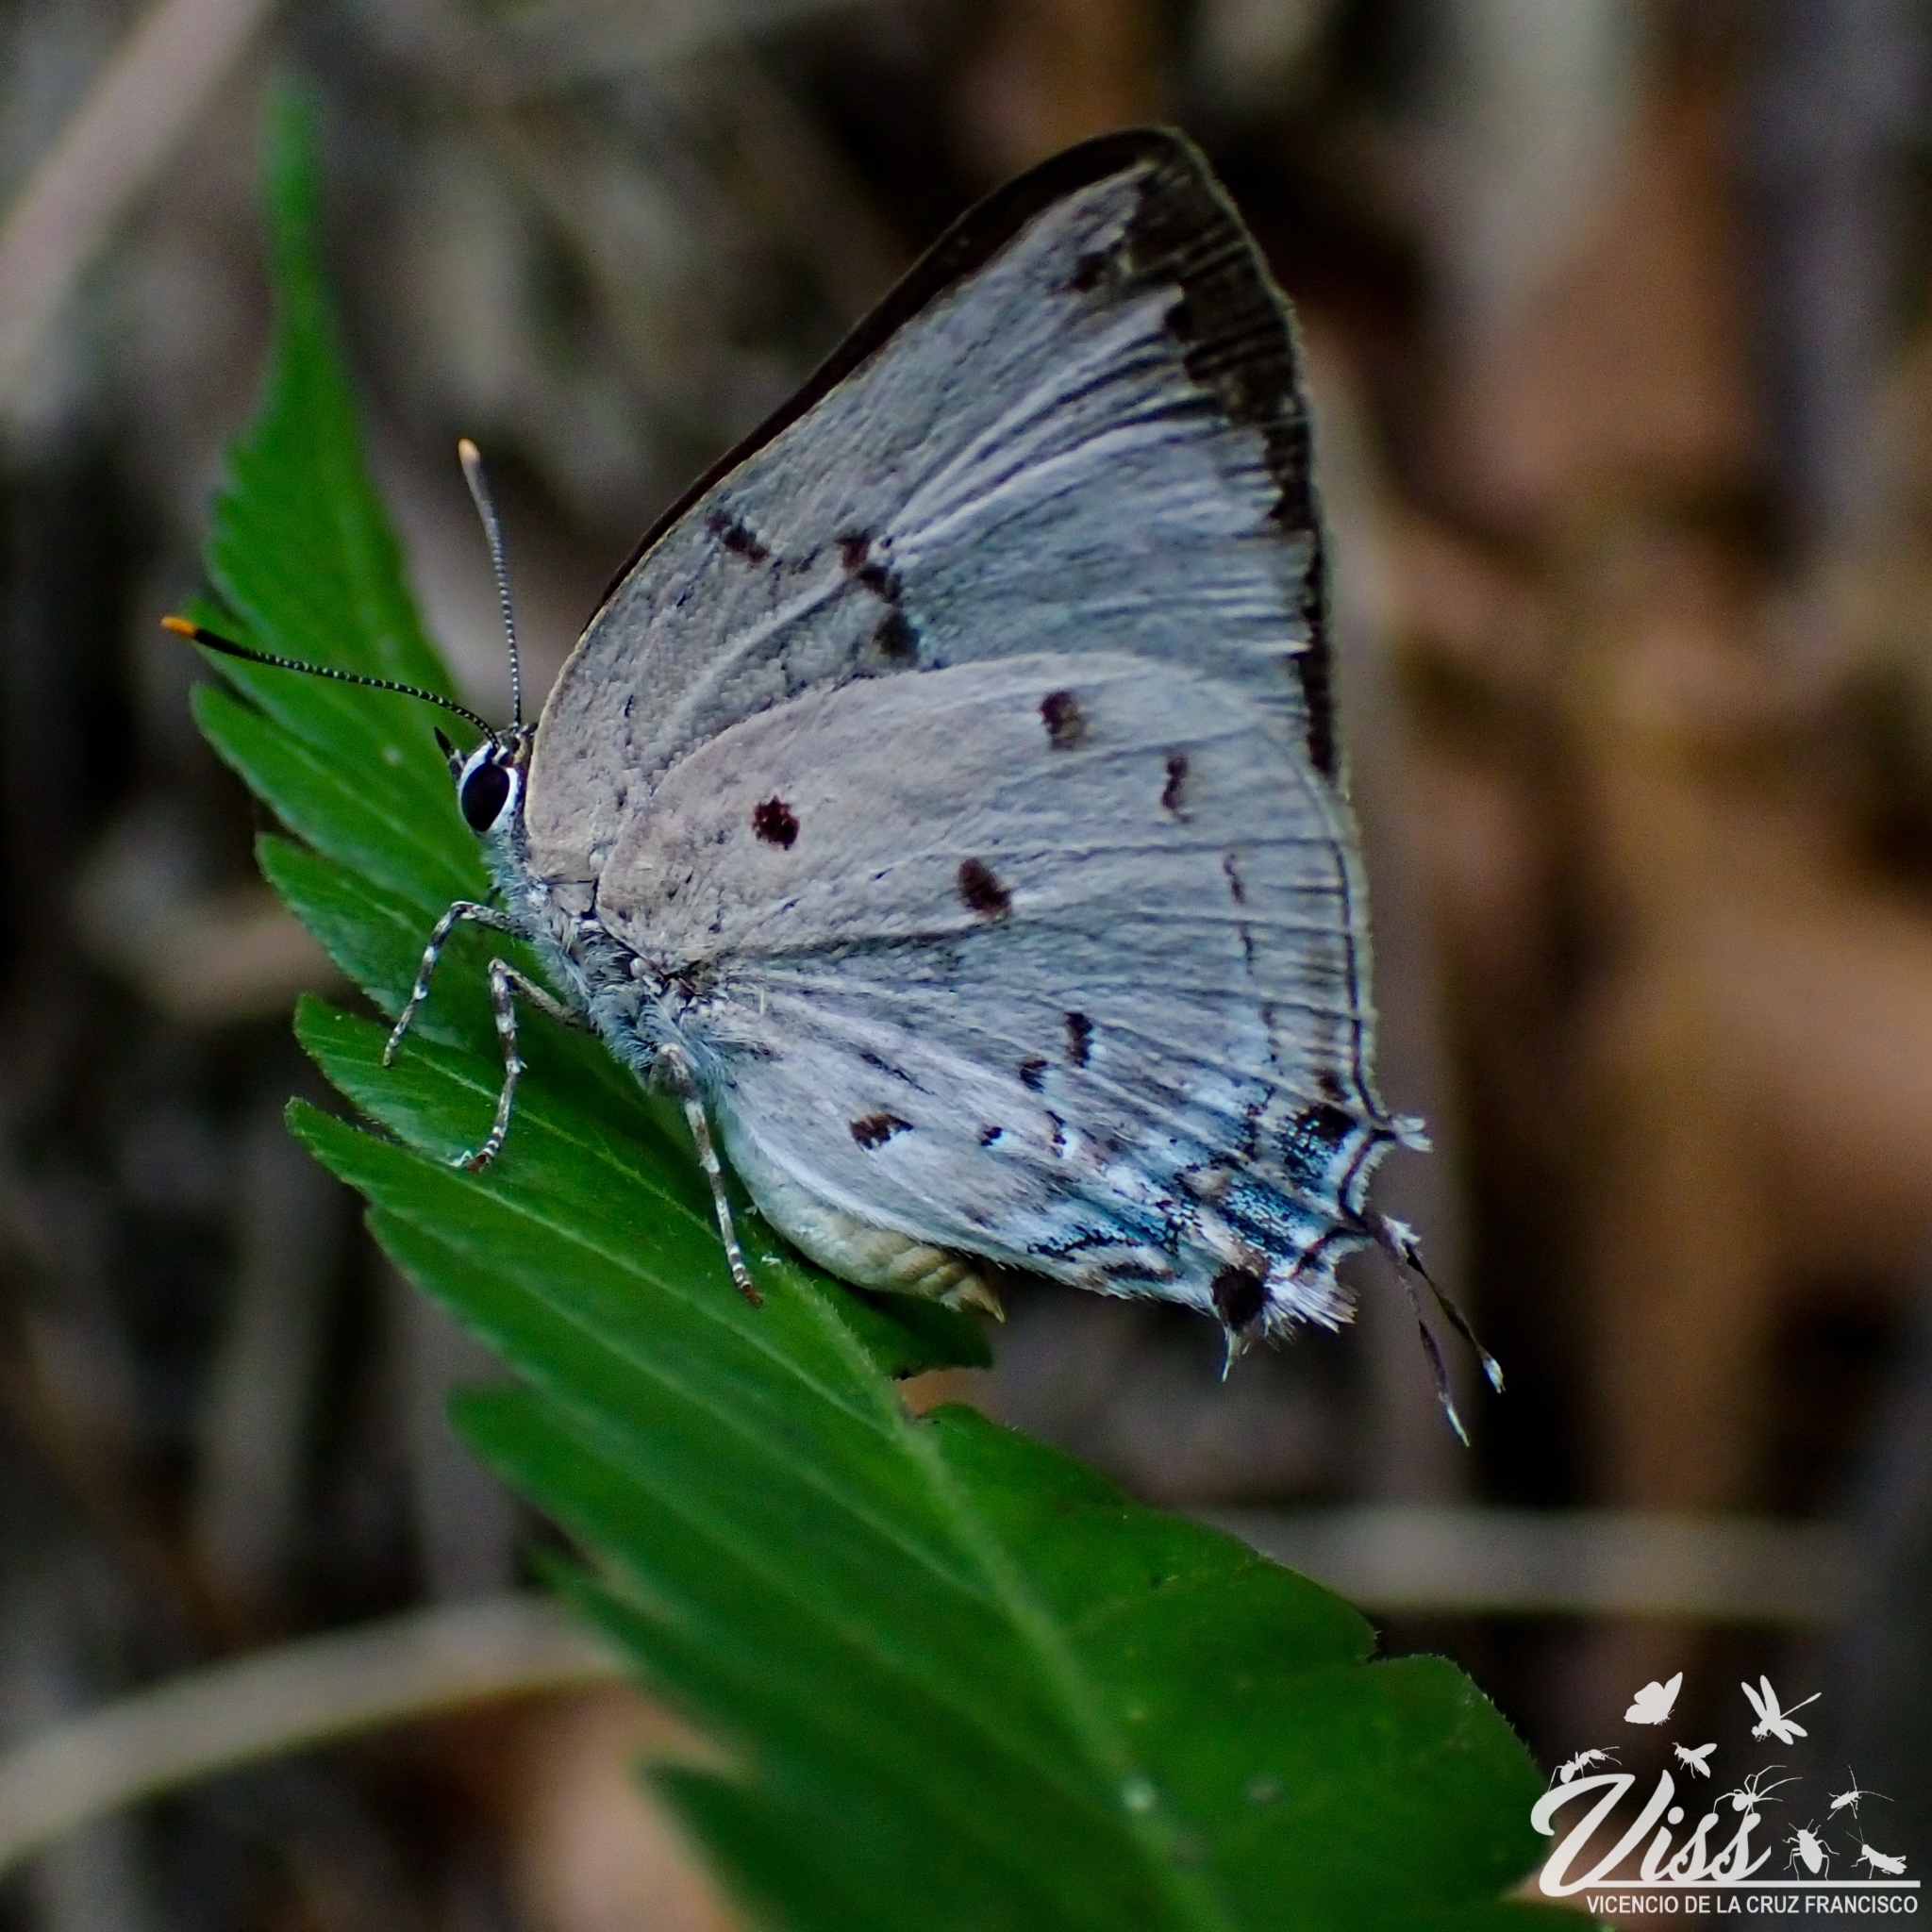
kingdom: Animalia
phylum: Arthropoda
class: Insecta
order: Lepidoptera
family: Lycaenidae
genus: Oenomaus
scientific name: Oenomaus ortygnus
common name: Aquamarine hairstreak
